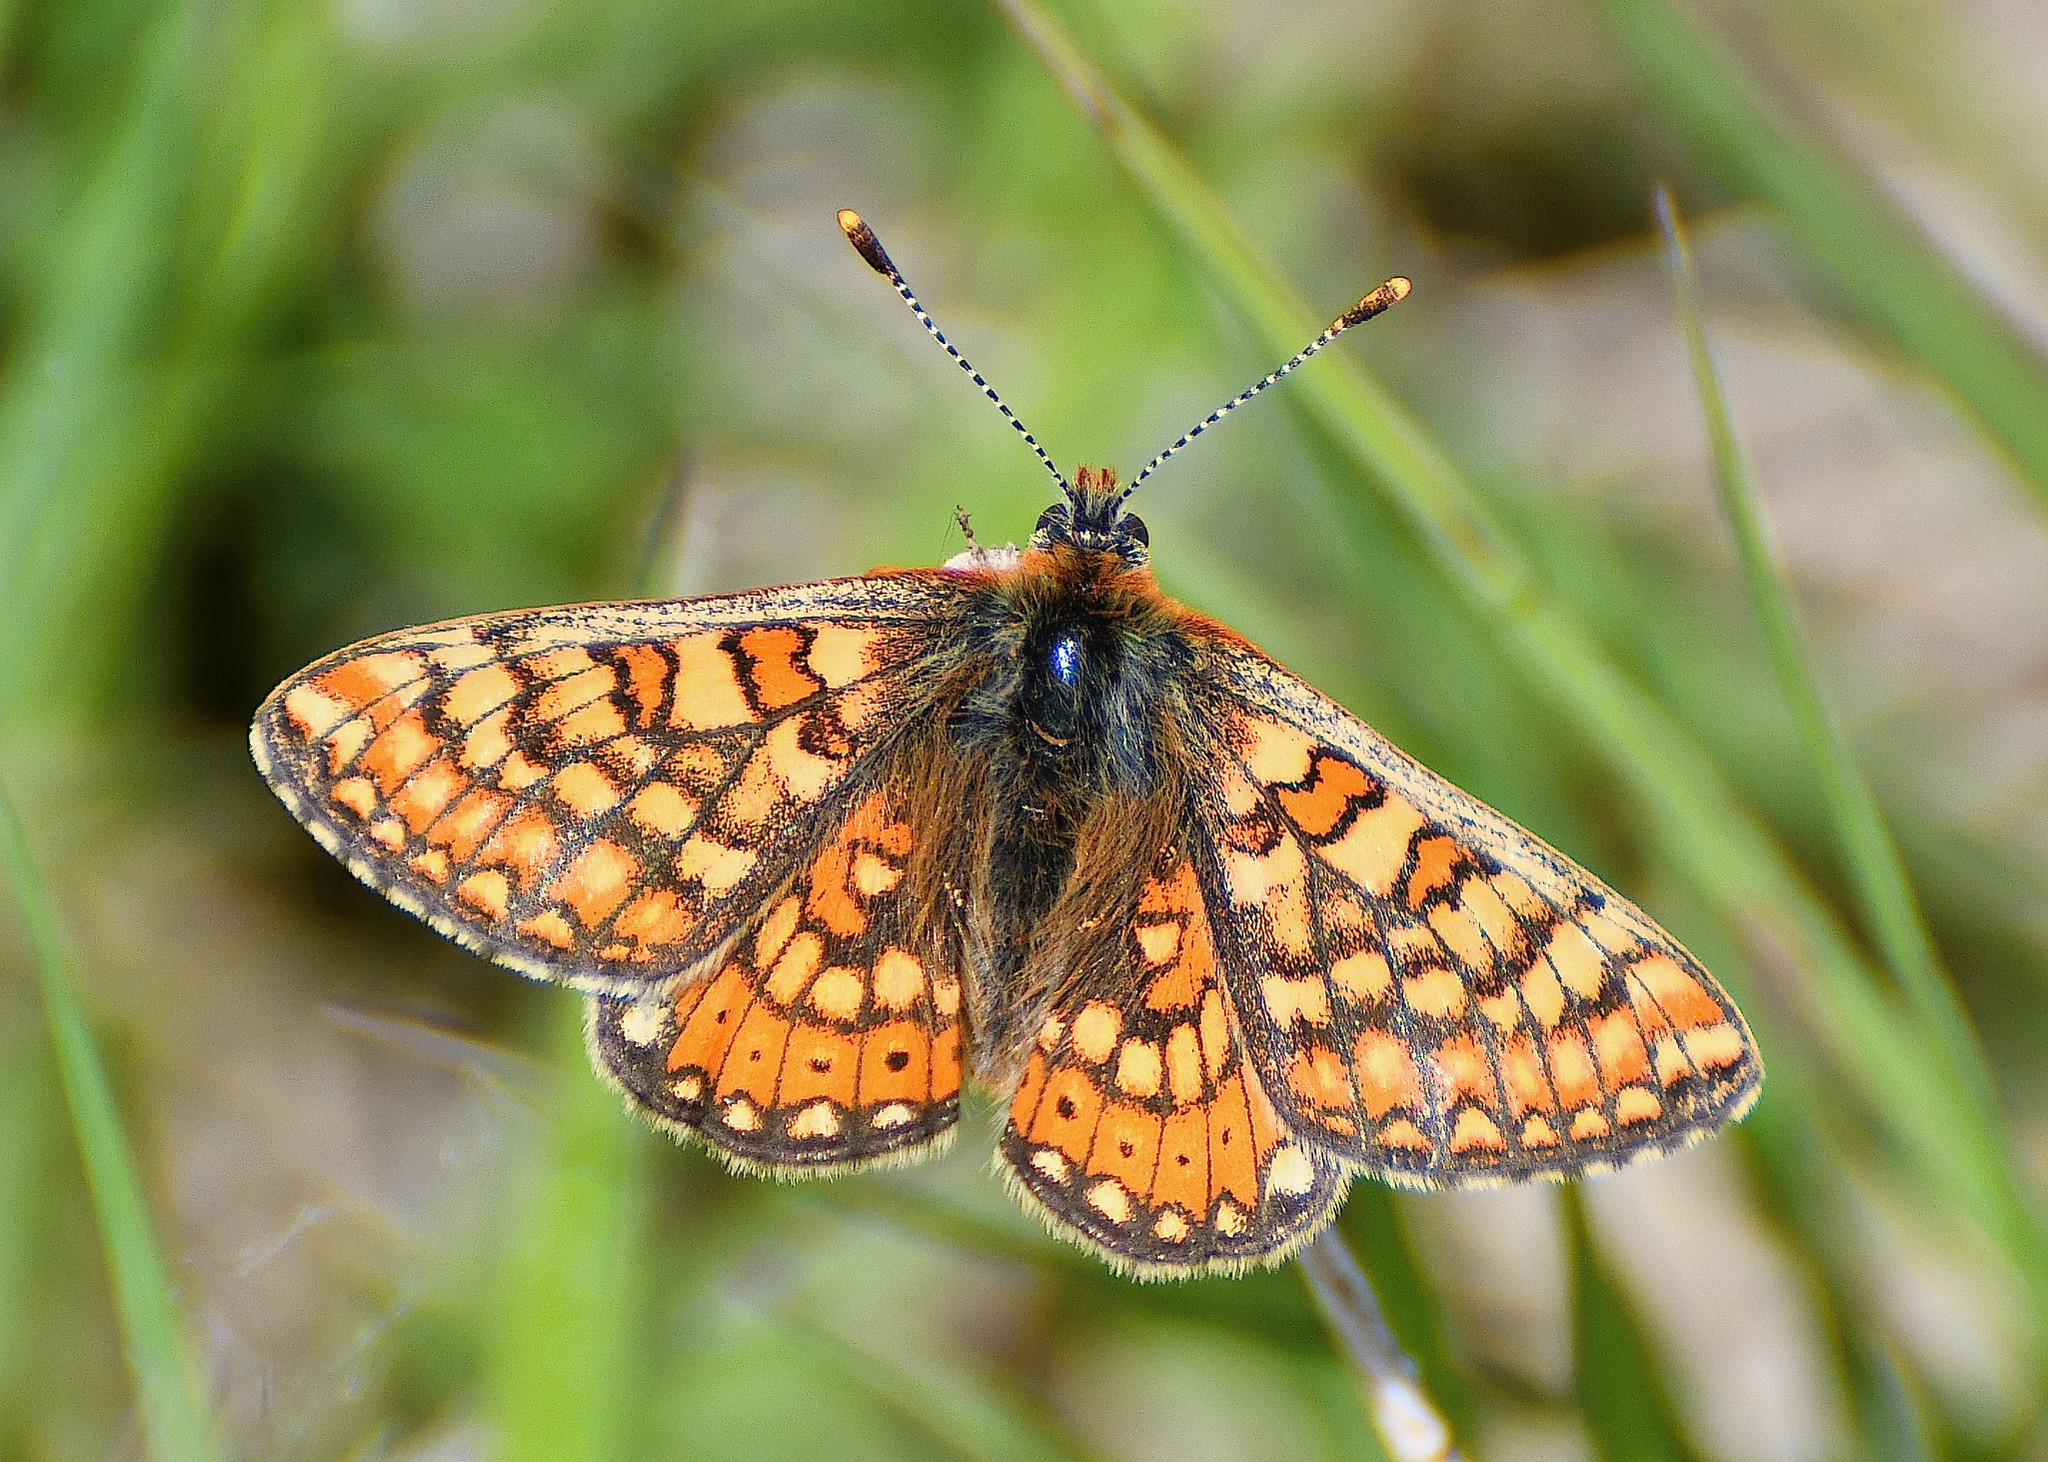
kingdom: Animalia
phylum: Arthropoda
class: Insecta
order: Lepidoptera
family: Nymphalidae
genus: Euphydryas
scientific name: Euphydryas aurinia
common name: Marsh fritillary
